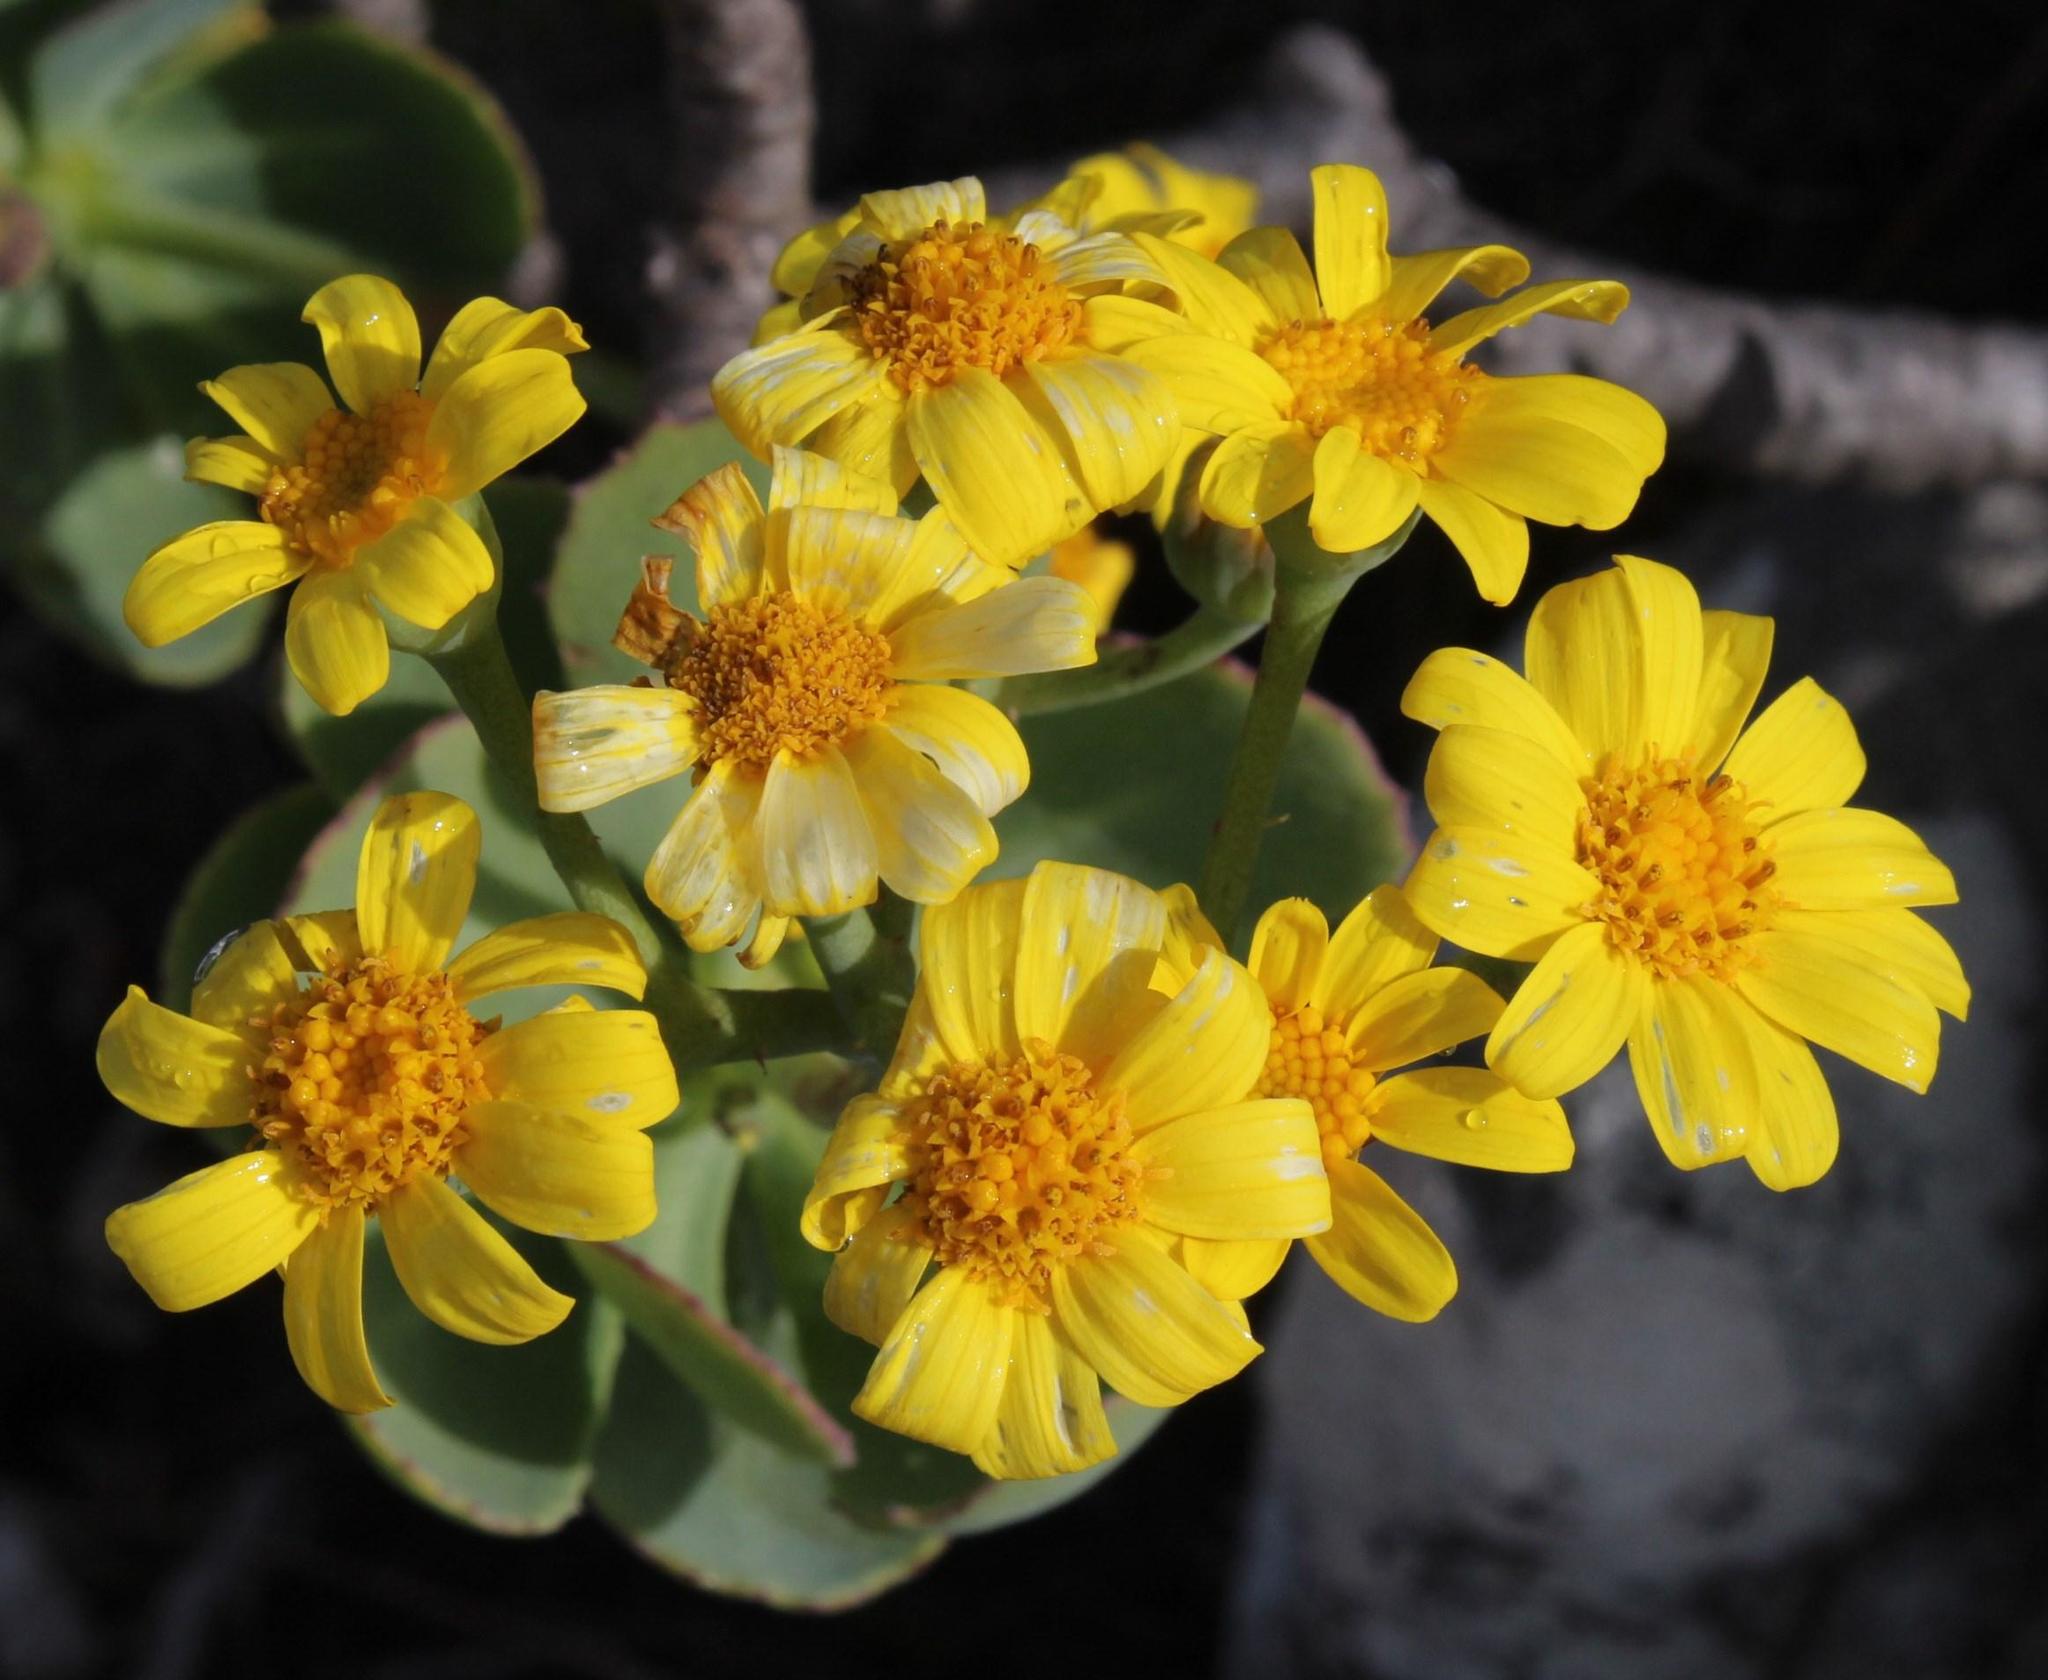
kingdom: Plantae
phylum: Tracheophyta
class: Magnoliopsida
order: Asterales
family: Asteraceae
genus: Othonna
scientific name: Othonna dentata
